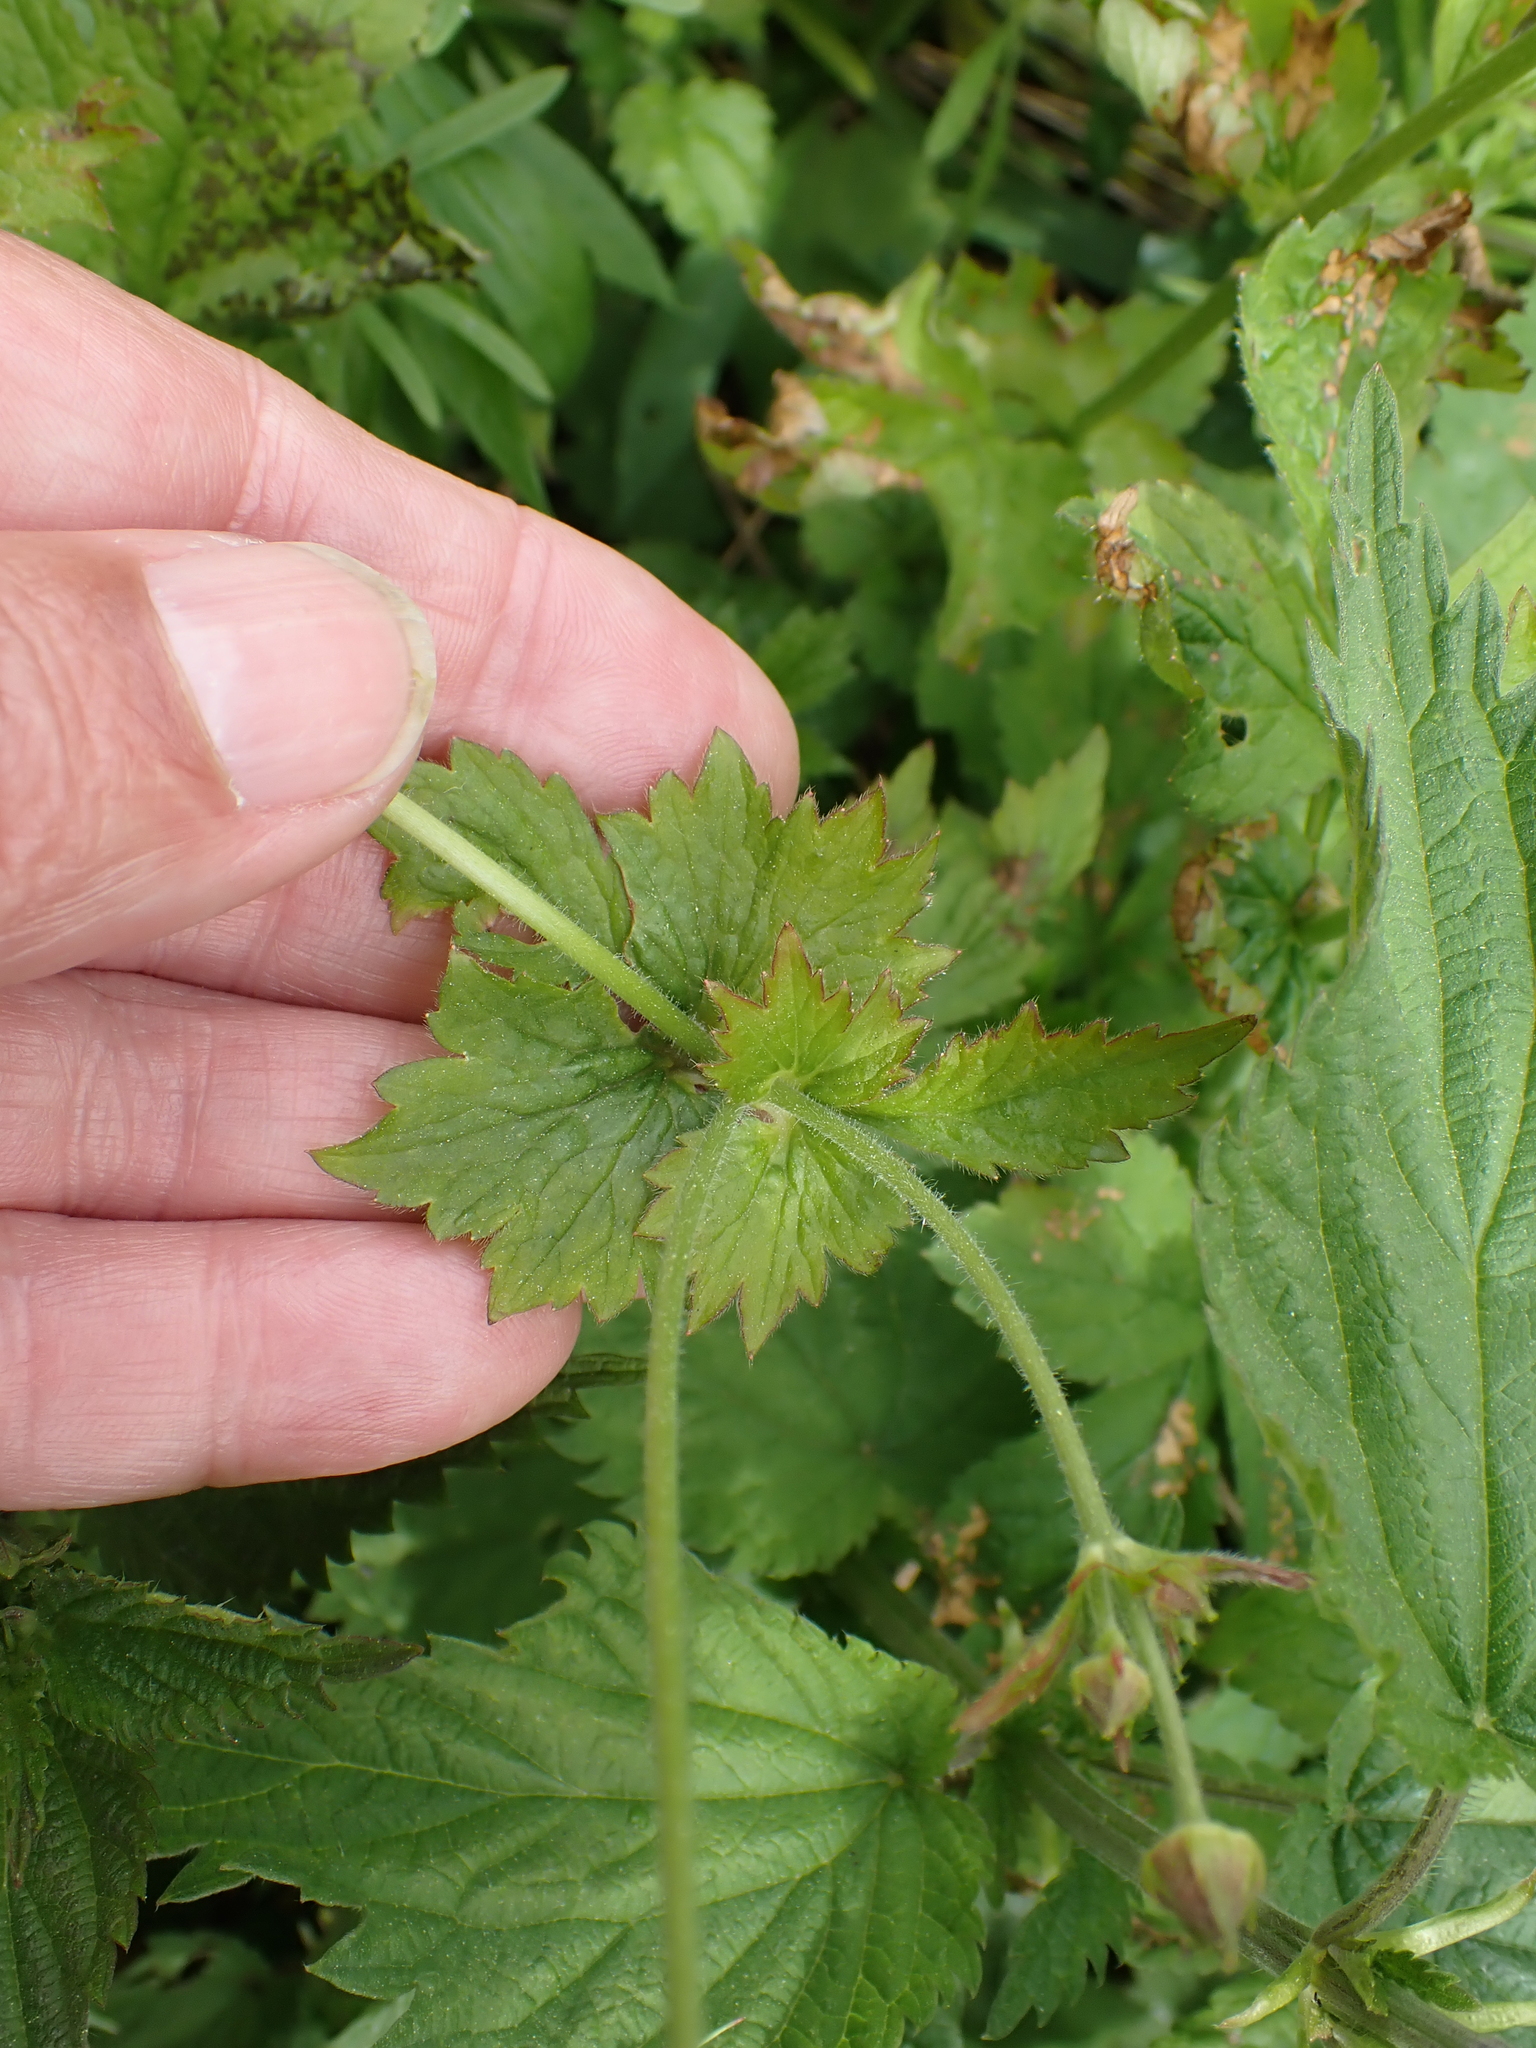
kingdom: Plantae
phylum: Tracheophyta
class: Magnoliopsida
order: Rosales
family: Rosaceae
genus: Geum
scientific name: Geum urbanum
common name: Wood avens
